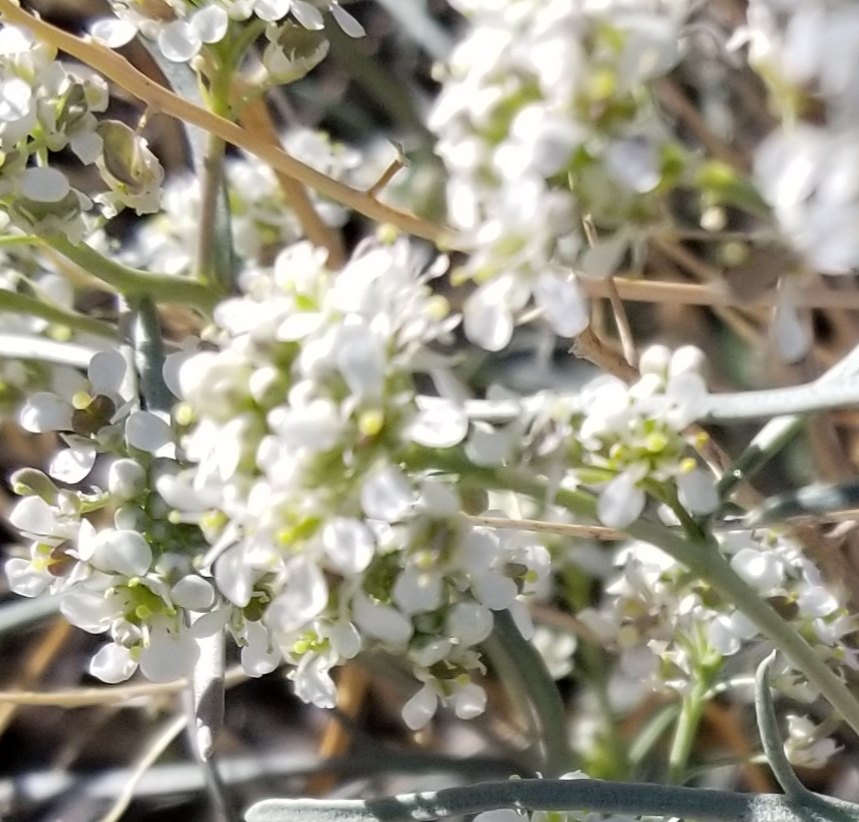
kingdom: Plantae
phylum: Tracheophyta
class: Magnoliopsida
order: Brassicales
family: Brassicaceae
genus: Lepidium
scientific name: Lepidium fremontii
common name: Fremont's pepperwort
